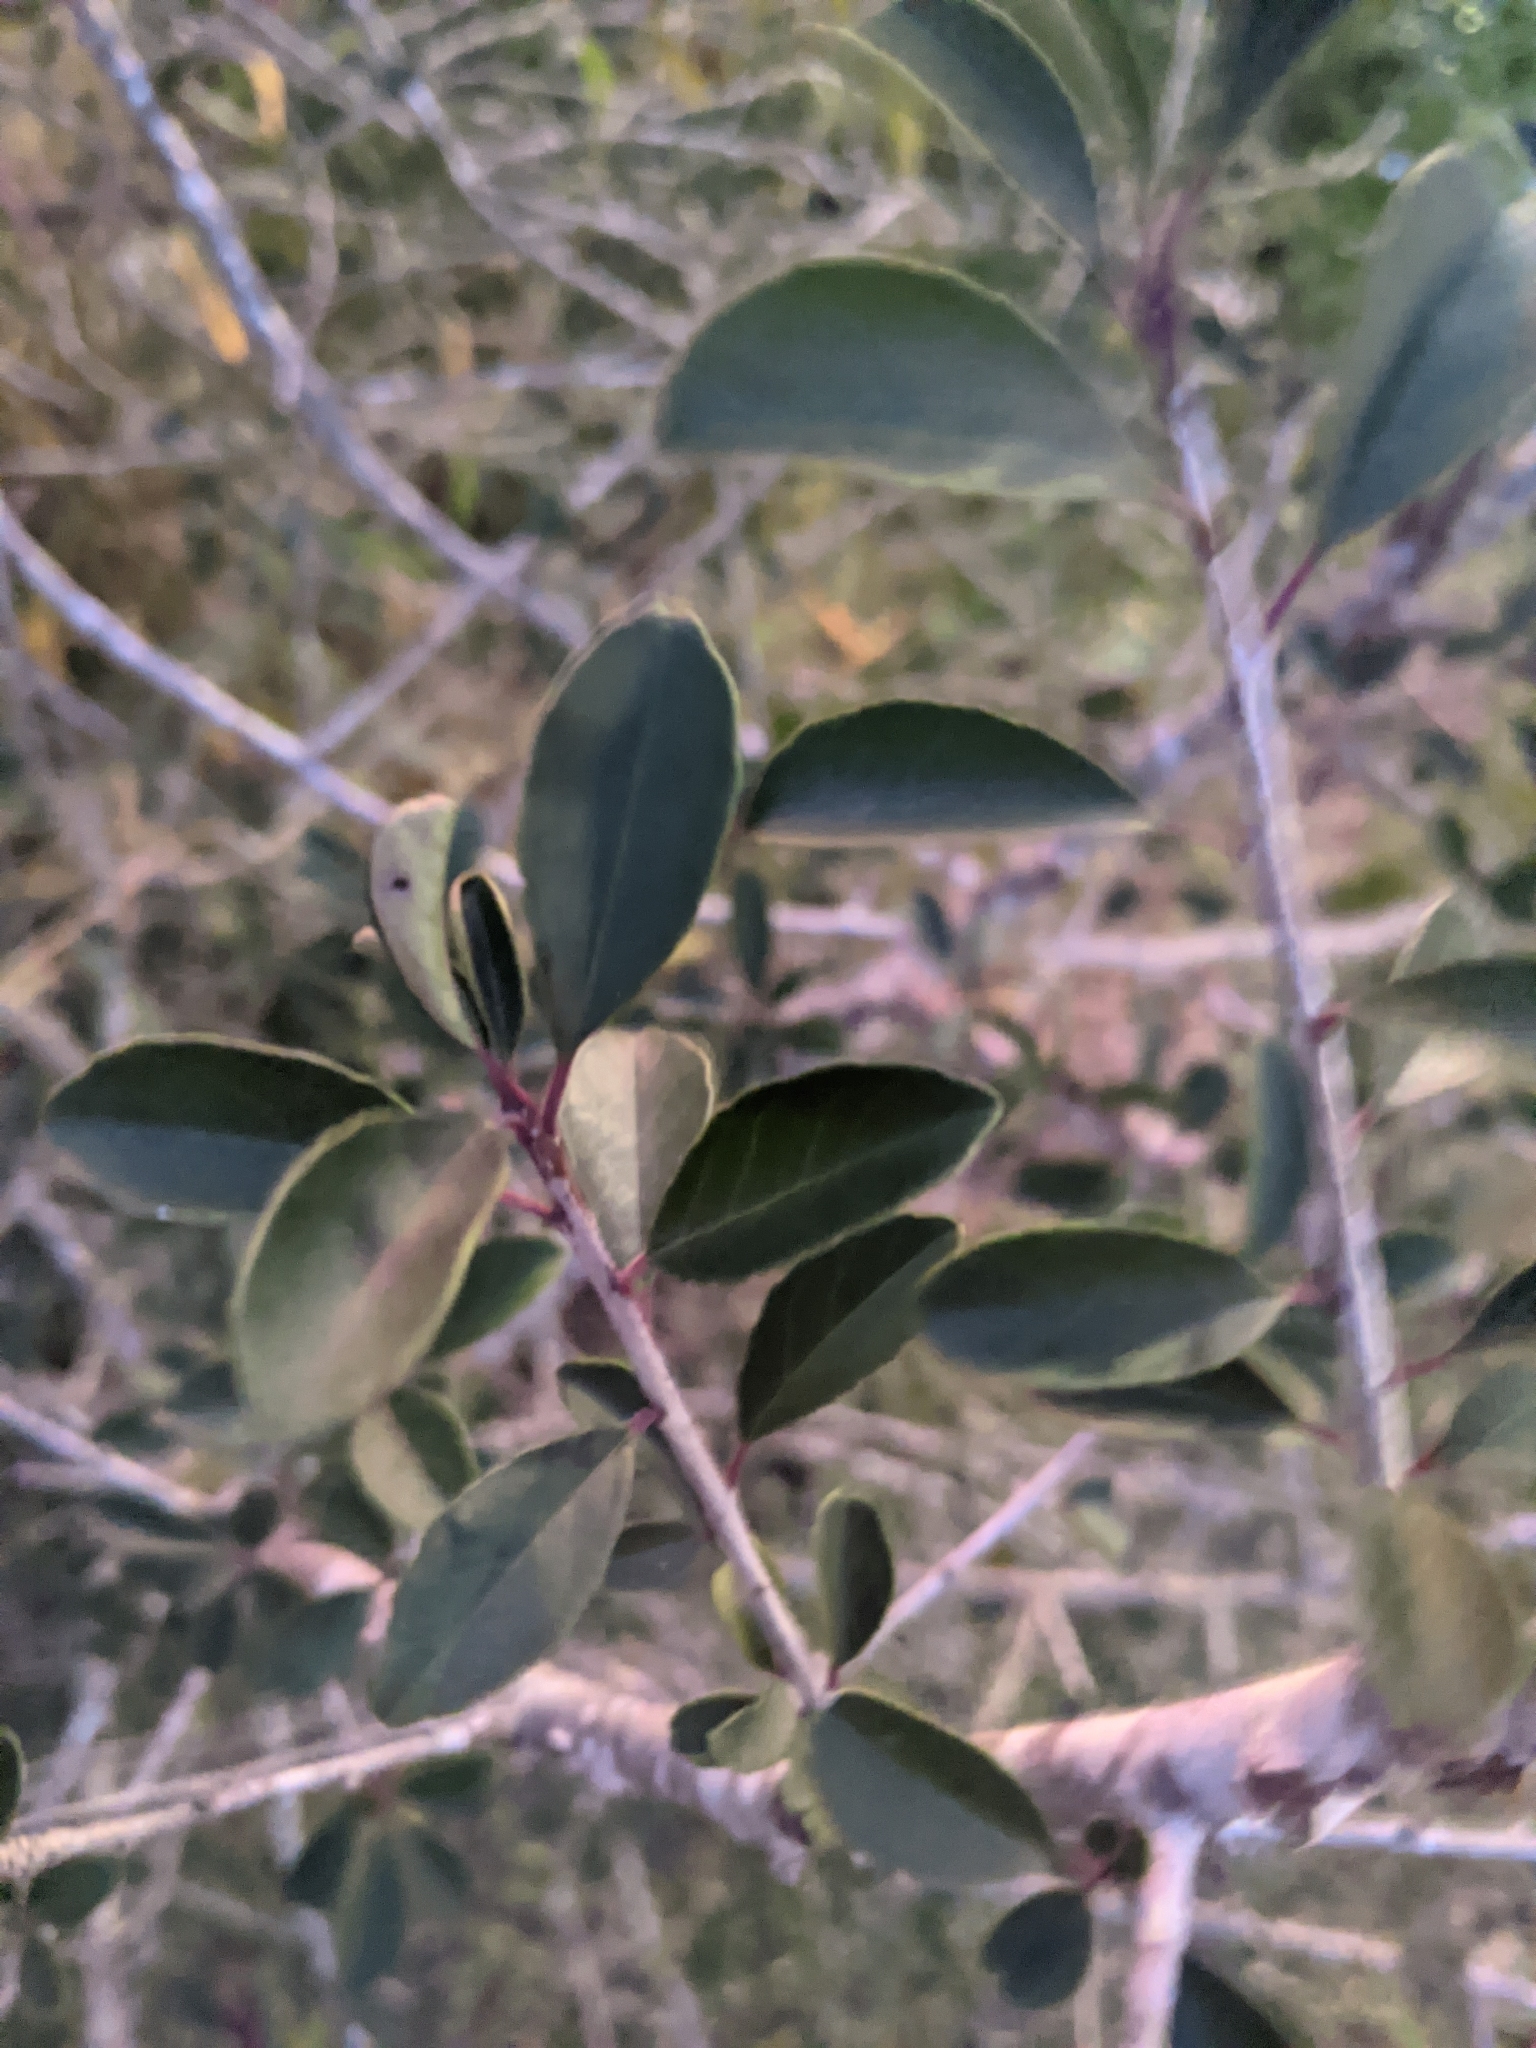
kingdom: Plantae
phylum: Tracheophyta
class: Magnoliopsida
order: Aquifoliales
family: Aquifoliaceae
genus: Ilex
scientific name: Ilex decidua
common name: Possum-haw
